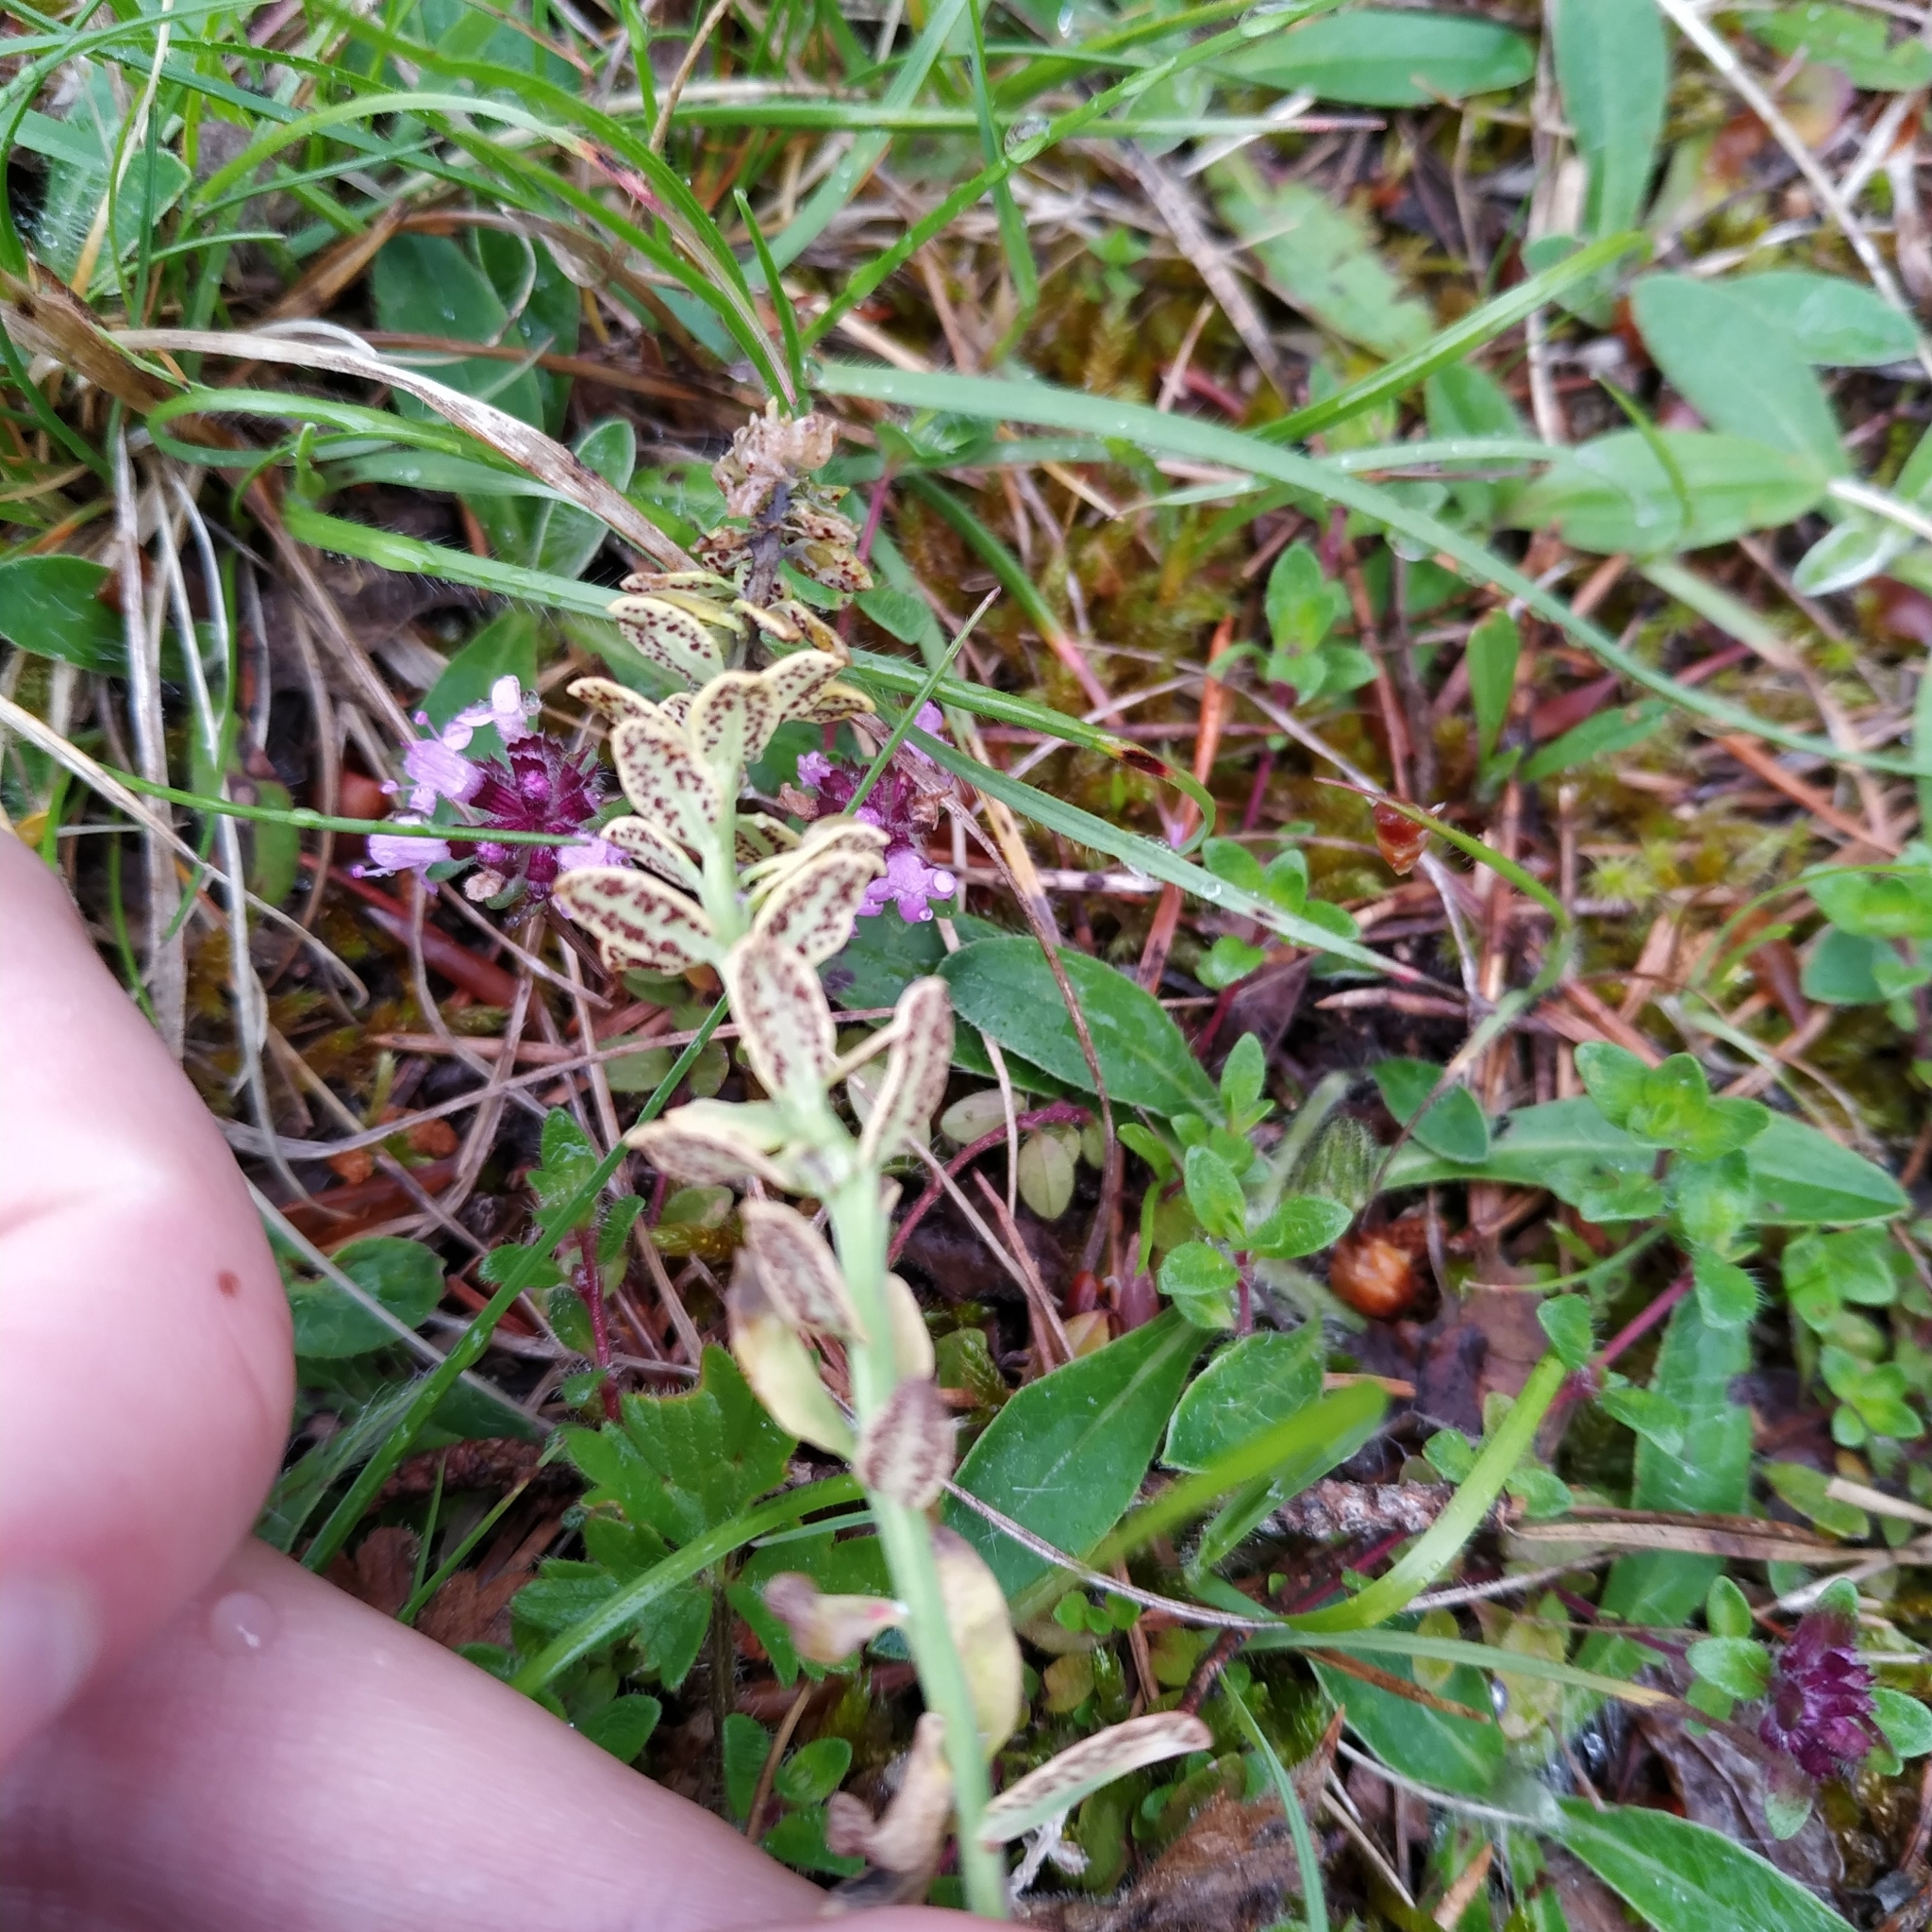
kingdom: Fungi
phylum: Basidiomycota
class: Pucciniomycetes
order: Pucciniales
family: Pucciniaceae
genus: Uromyces
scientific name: Uromyces scutellatus
